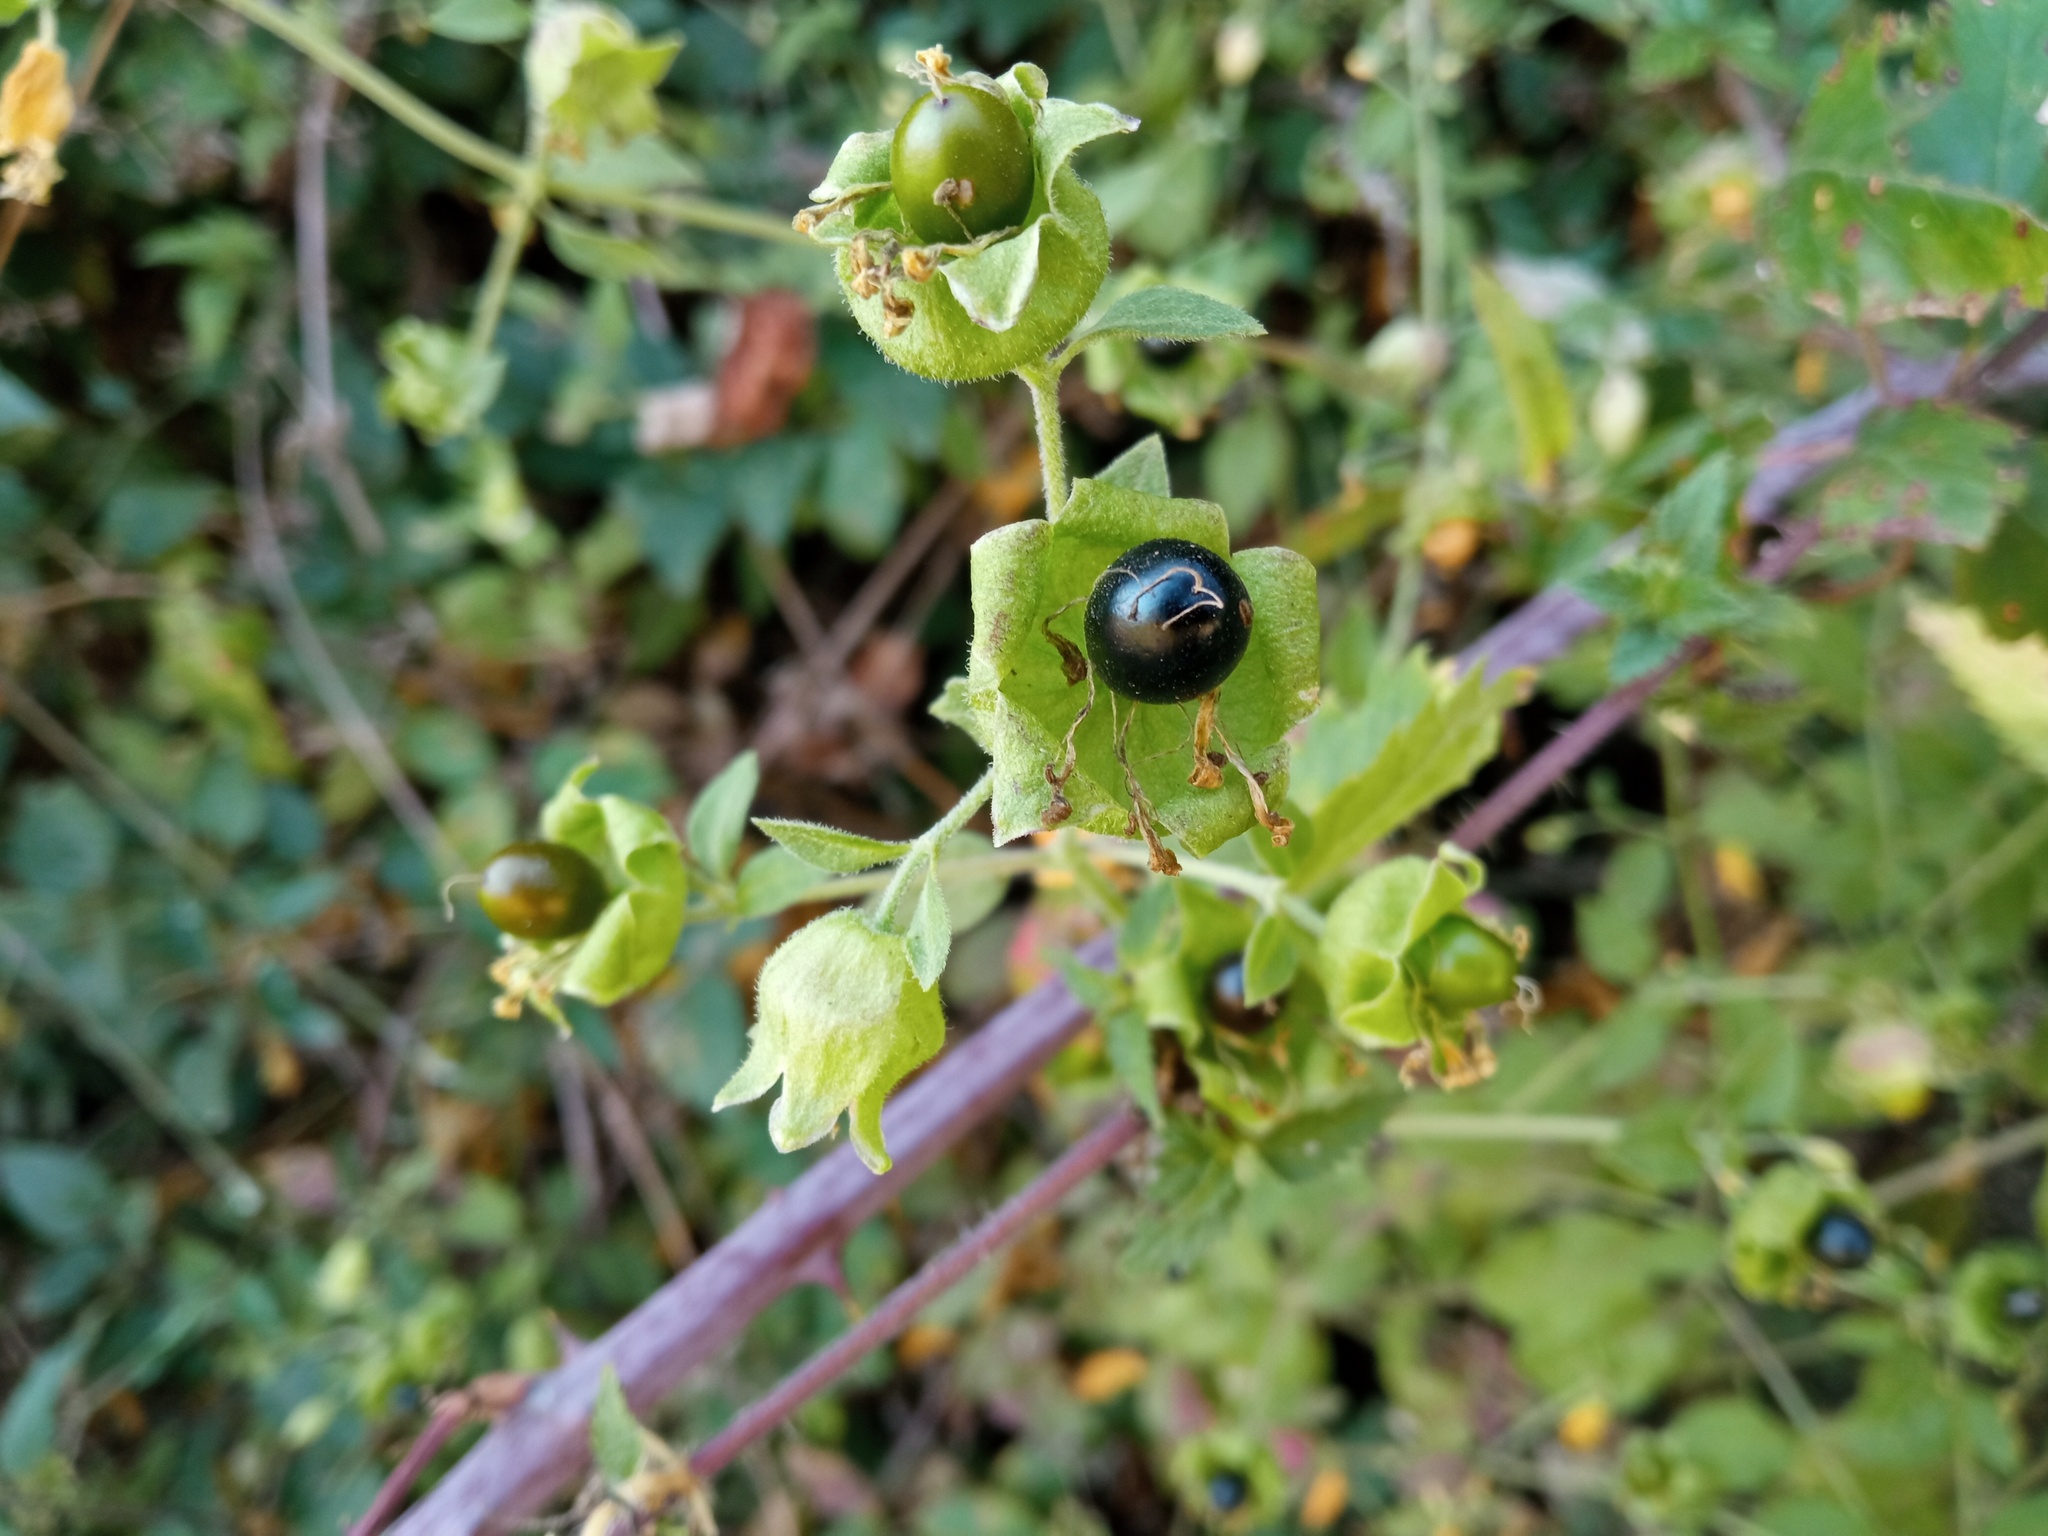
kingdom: Plantae
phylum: Tracheophyta
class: Magnoliopsida
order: Caryophyllales
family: Caryophyllaceae
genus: Silene
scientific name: Silene baccifera
